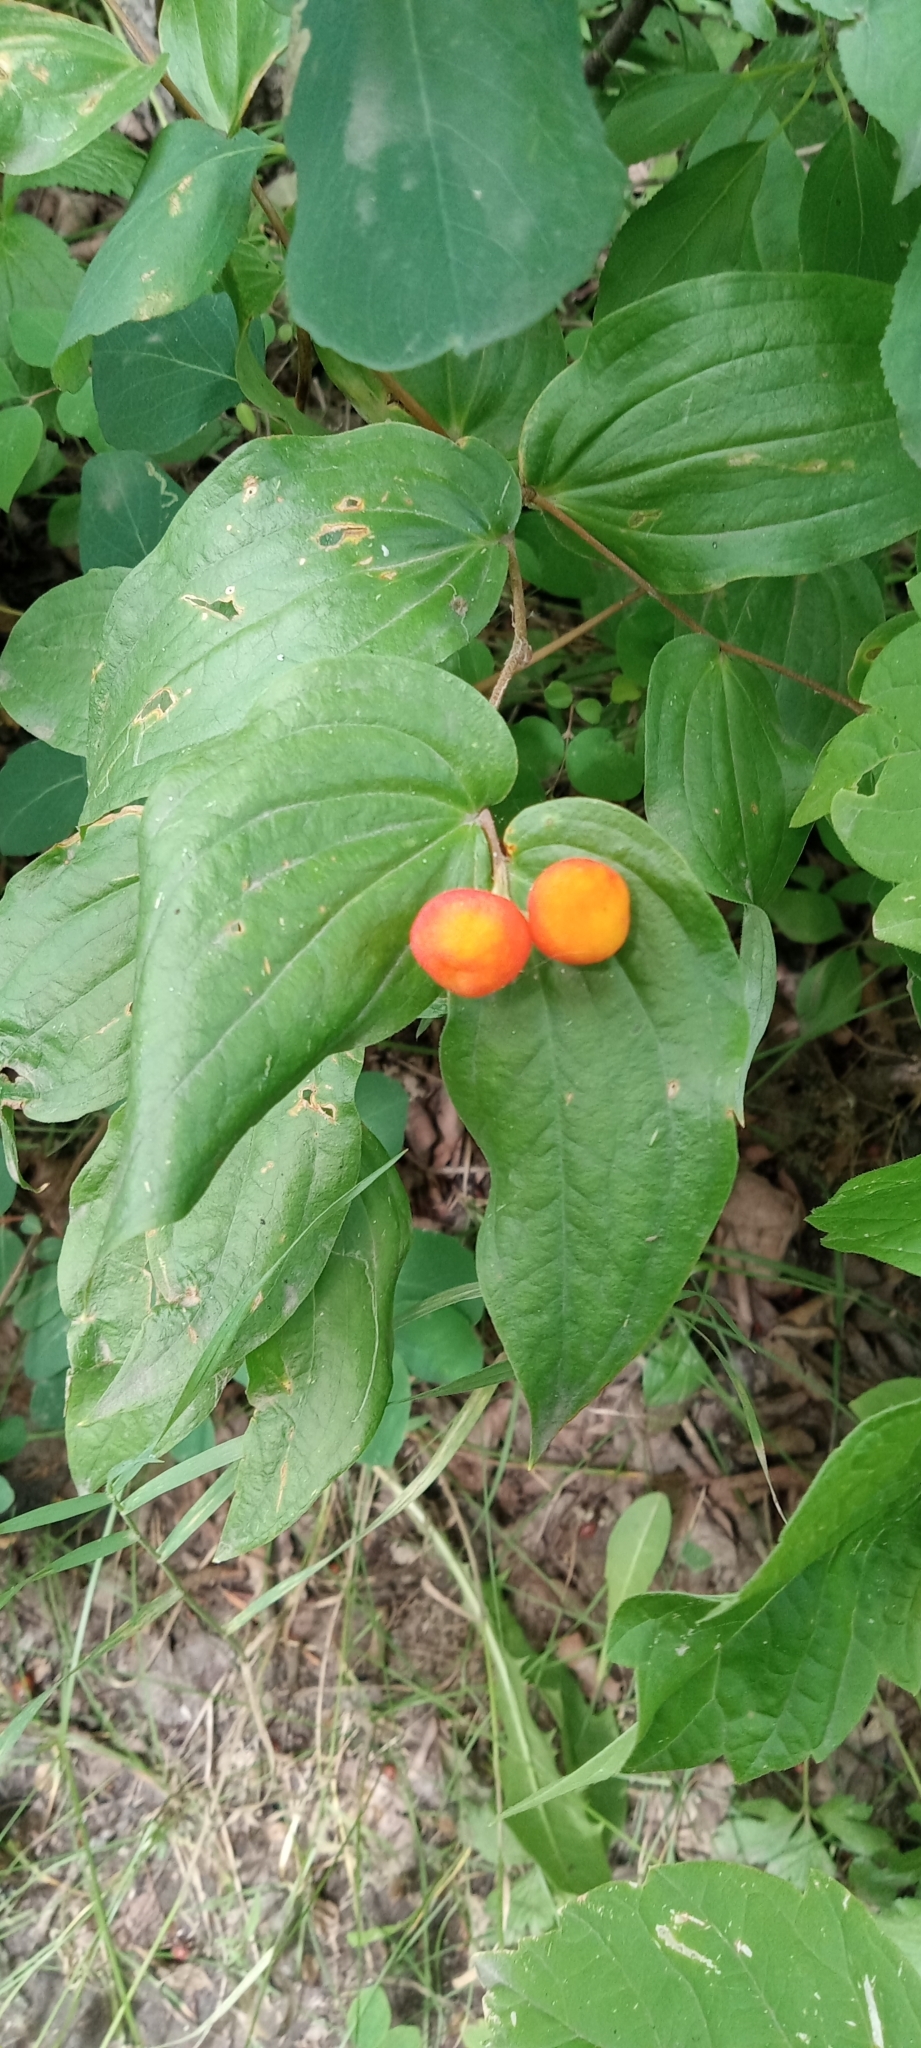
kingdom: Plantae
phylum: Tracheophyta
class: Liliopsida
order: Liliales
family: Liliaceae
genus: Prosartes
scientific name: Prosartes trachycarpa
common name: Rough-fruit fairy-bells
